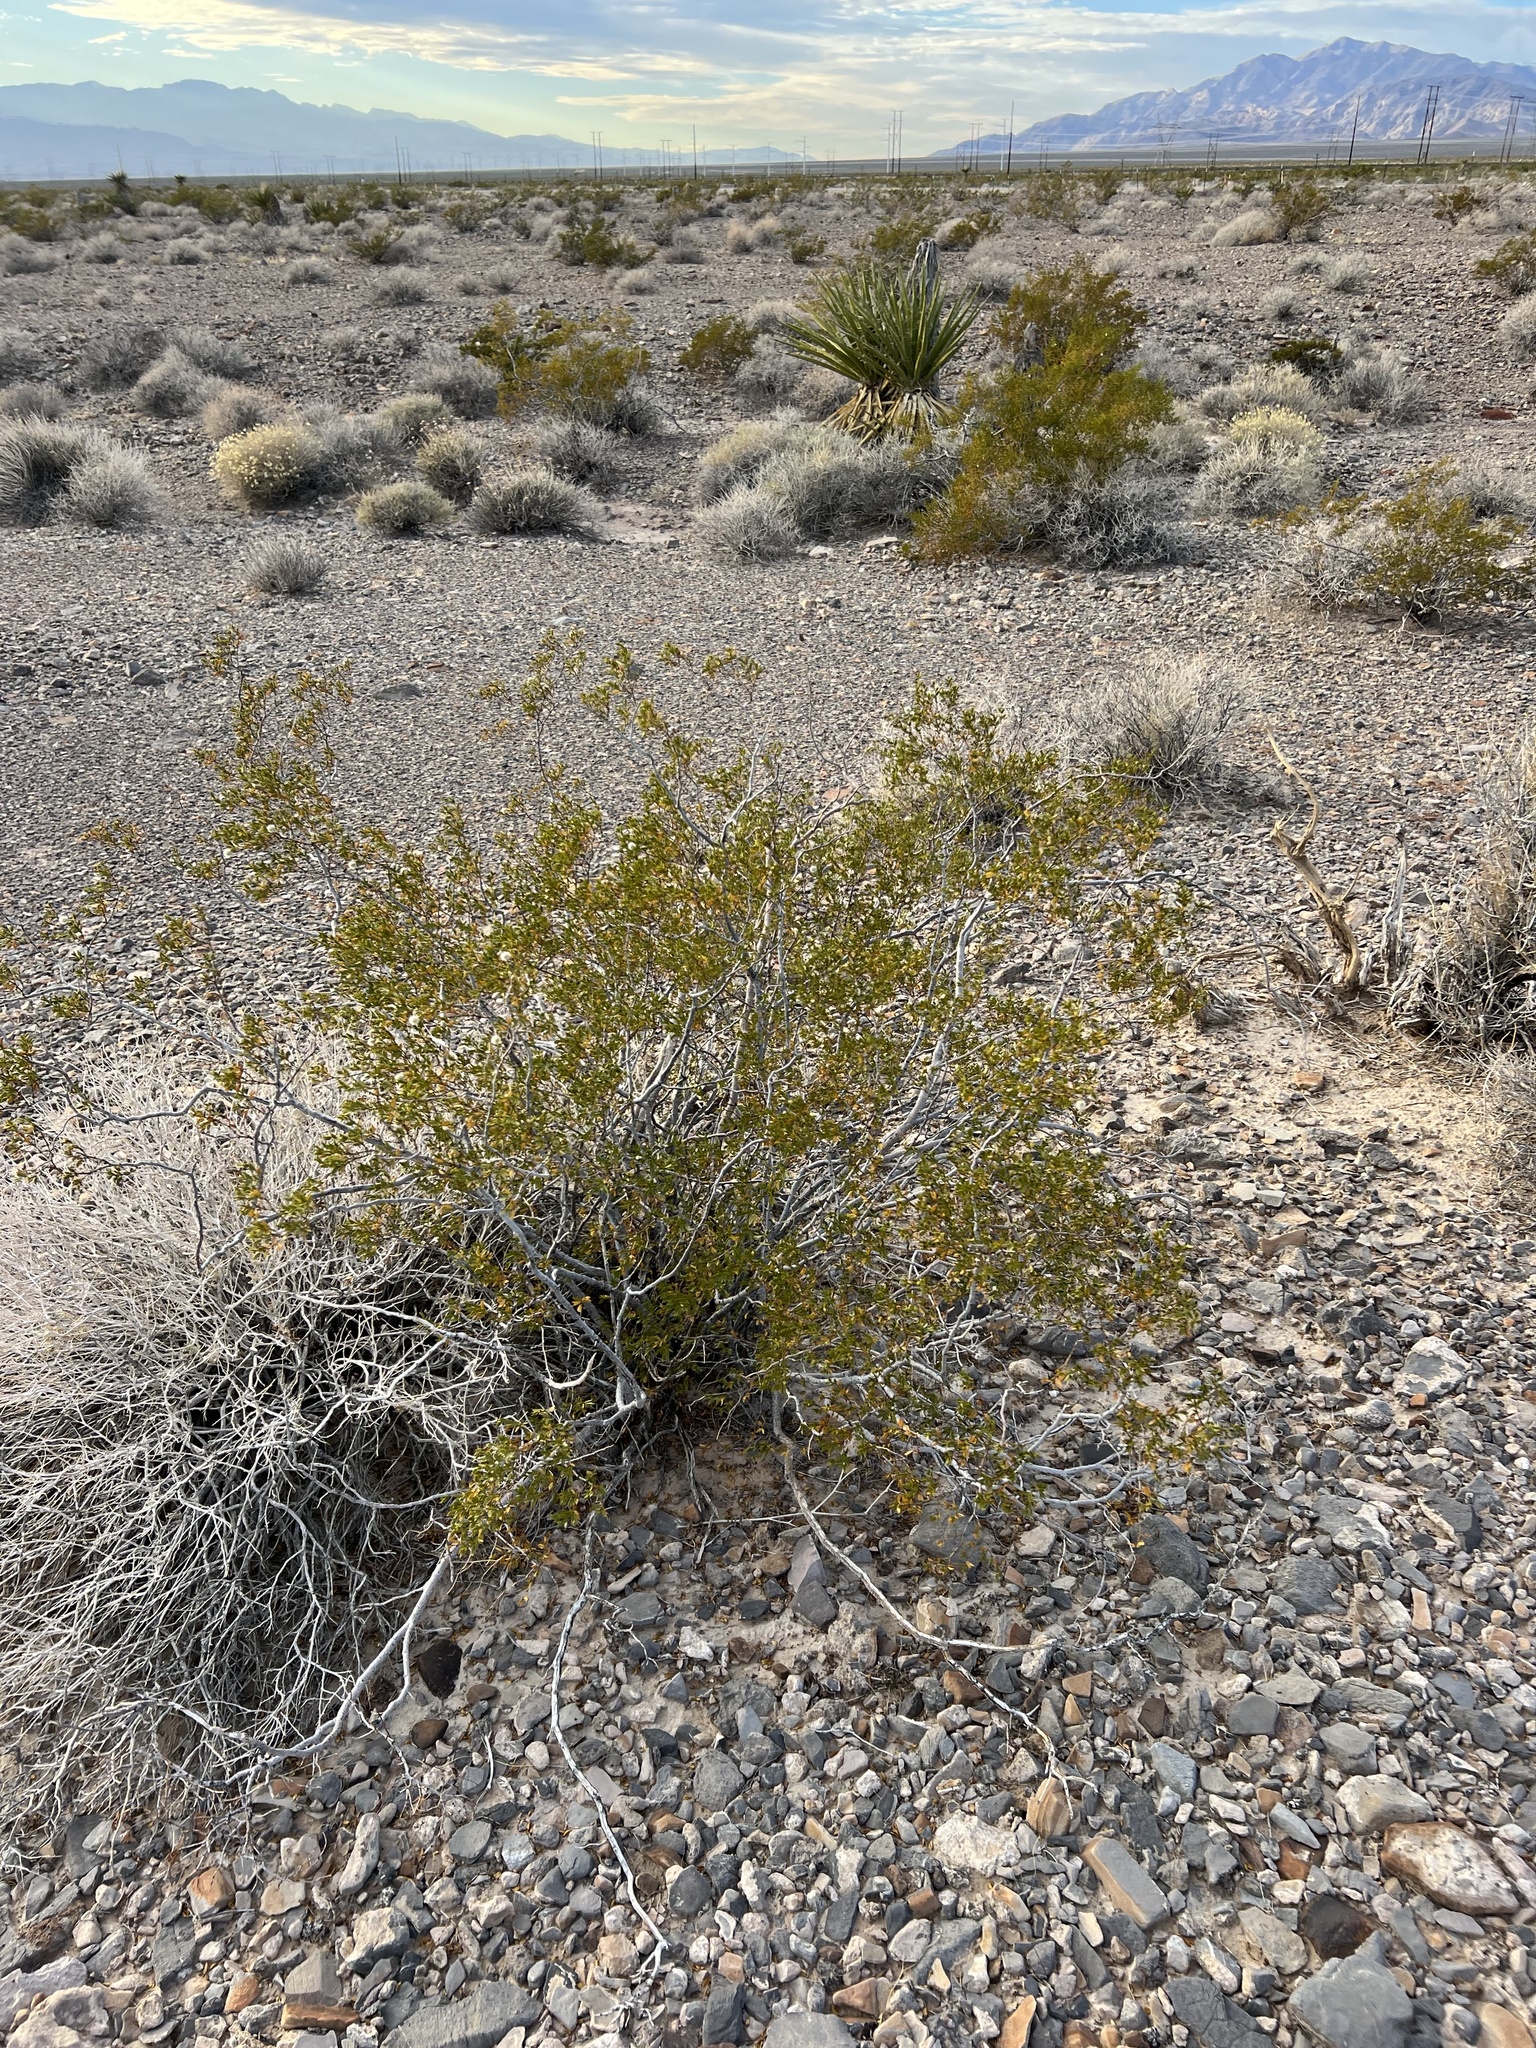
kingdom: Plantae
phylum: Tracheophyta
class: Magnoliopsida
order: Zygophyllales
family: Zygophyllaceae
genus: Larrea
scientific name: Larrea tridentata
